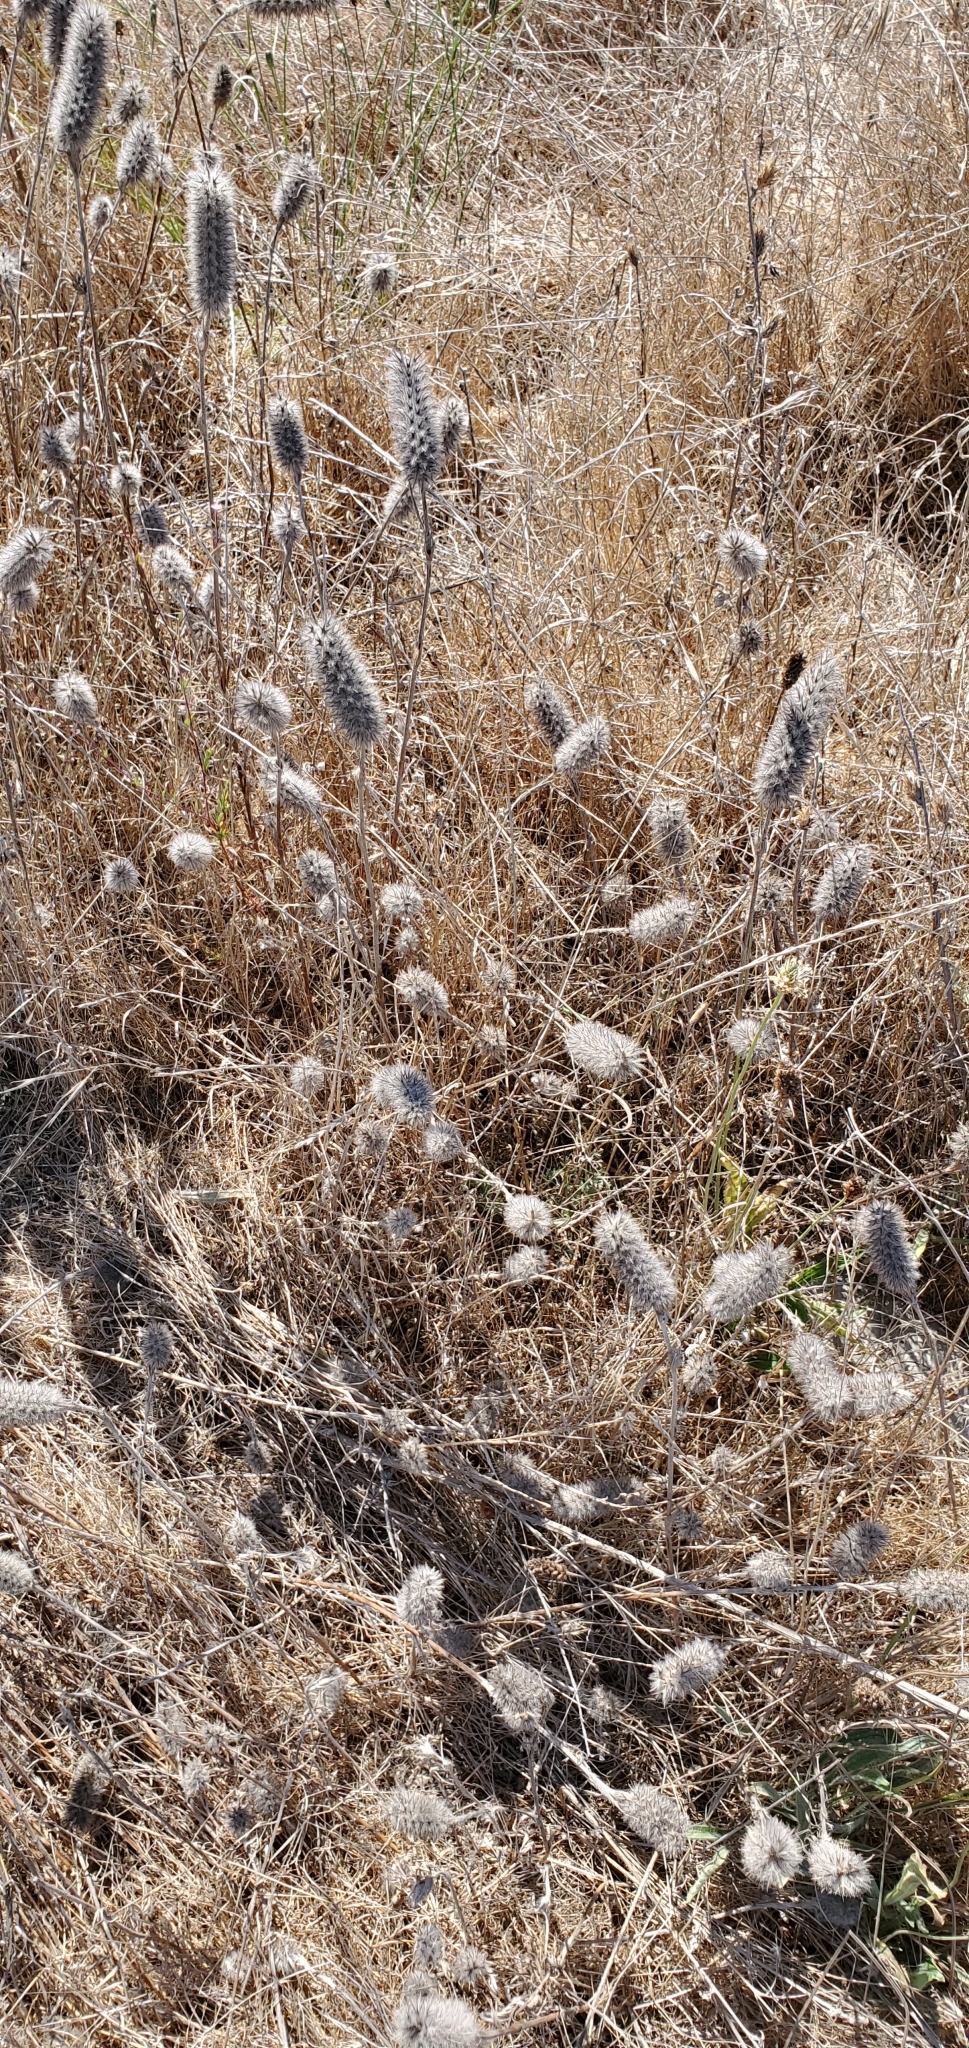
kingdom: Plantae
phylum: Tracheophyta
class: Magnoliopsida
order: Fabales
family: Fabaceae
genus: Trifolium
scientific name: Trifolium angustifolium
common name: Narrow clover
